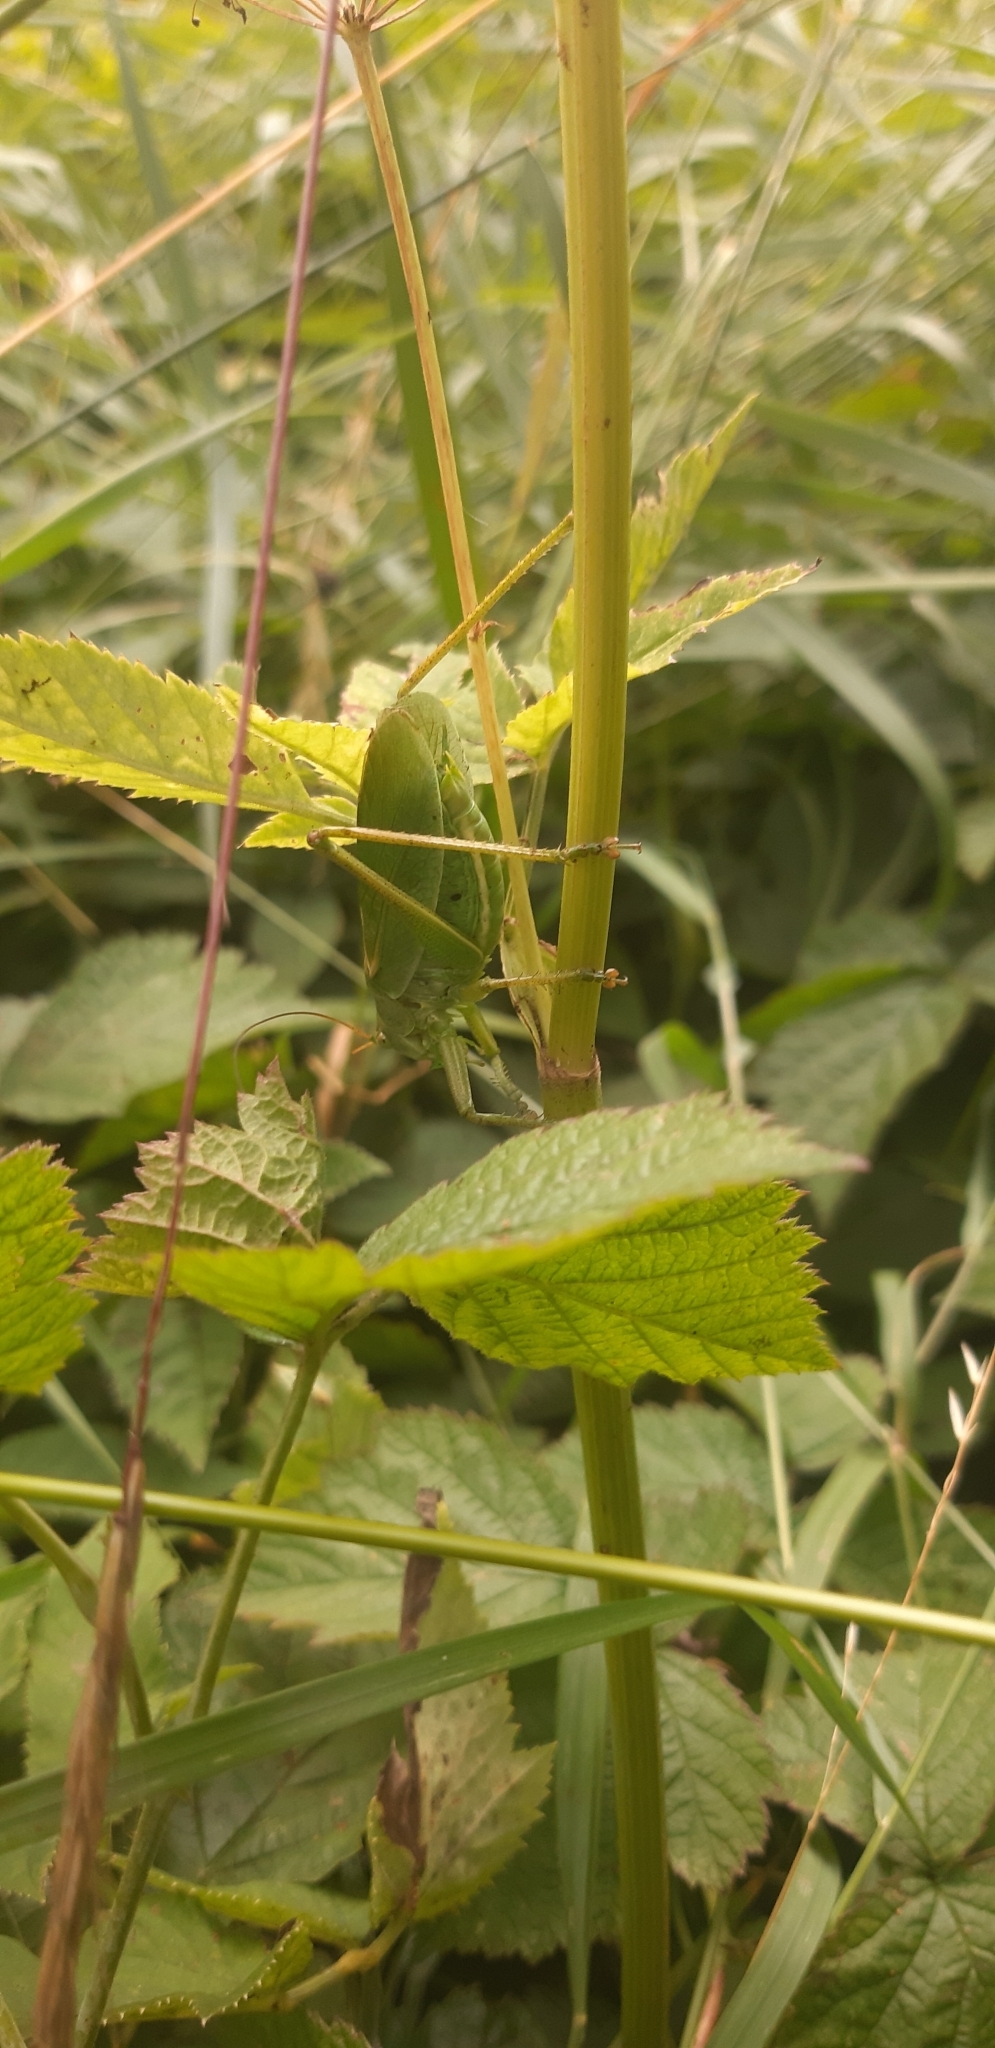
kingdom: Animalia
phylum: Arthropoda
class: Insecta
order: Orthoptera
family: Tettigoniidae
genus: Tettigonia
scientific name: Tettigonia cantans
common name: Upland green bush-cricket
